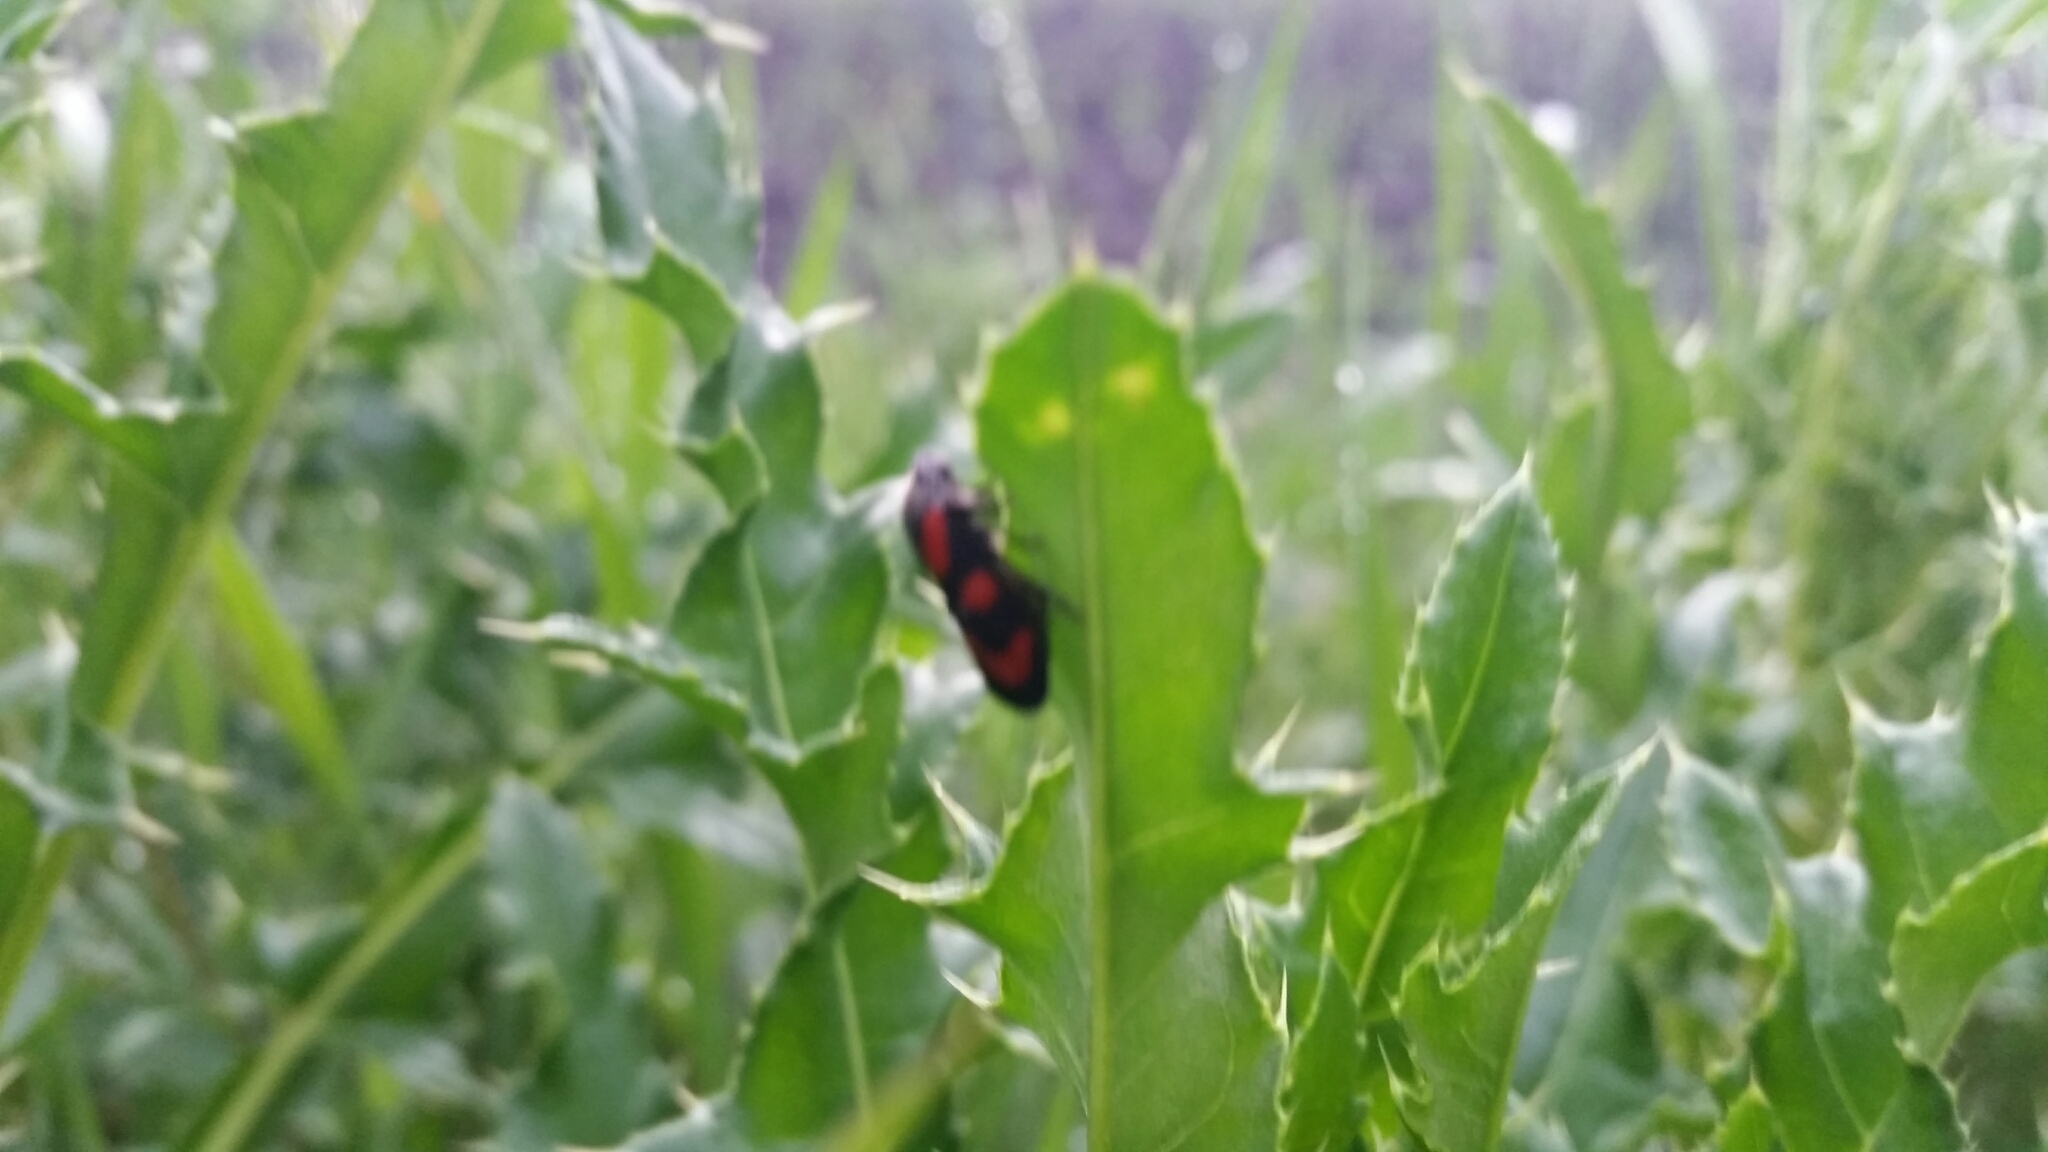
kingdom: Animalia
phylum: Arthropoda
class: Insecta
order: Hemiptera
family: Cercopidae
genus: Cercopis
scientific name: Cercopis vulnerata
